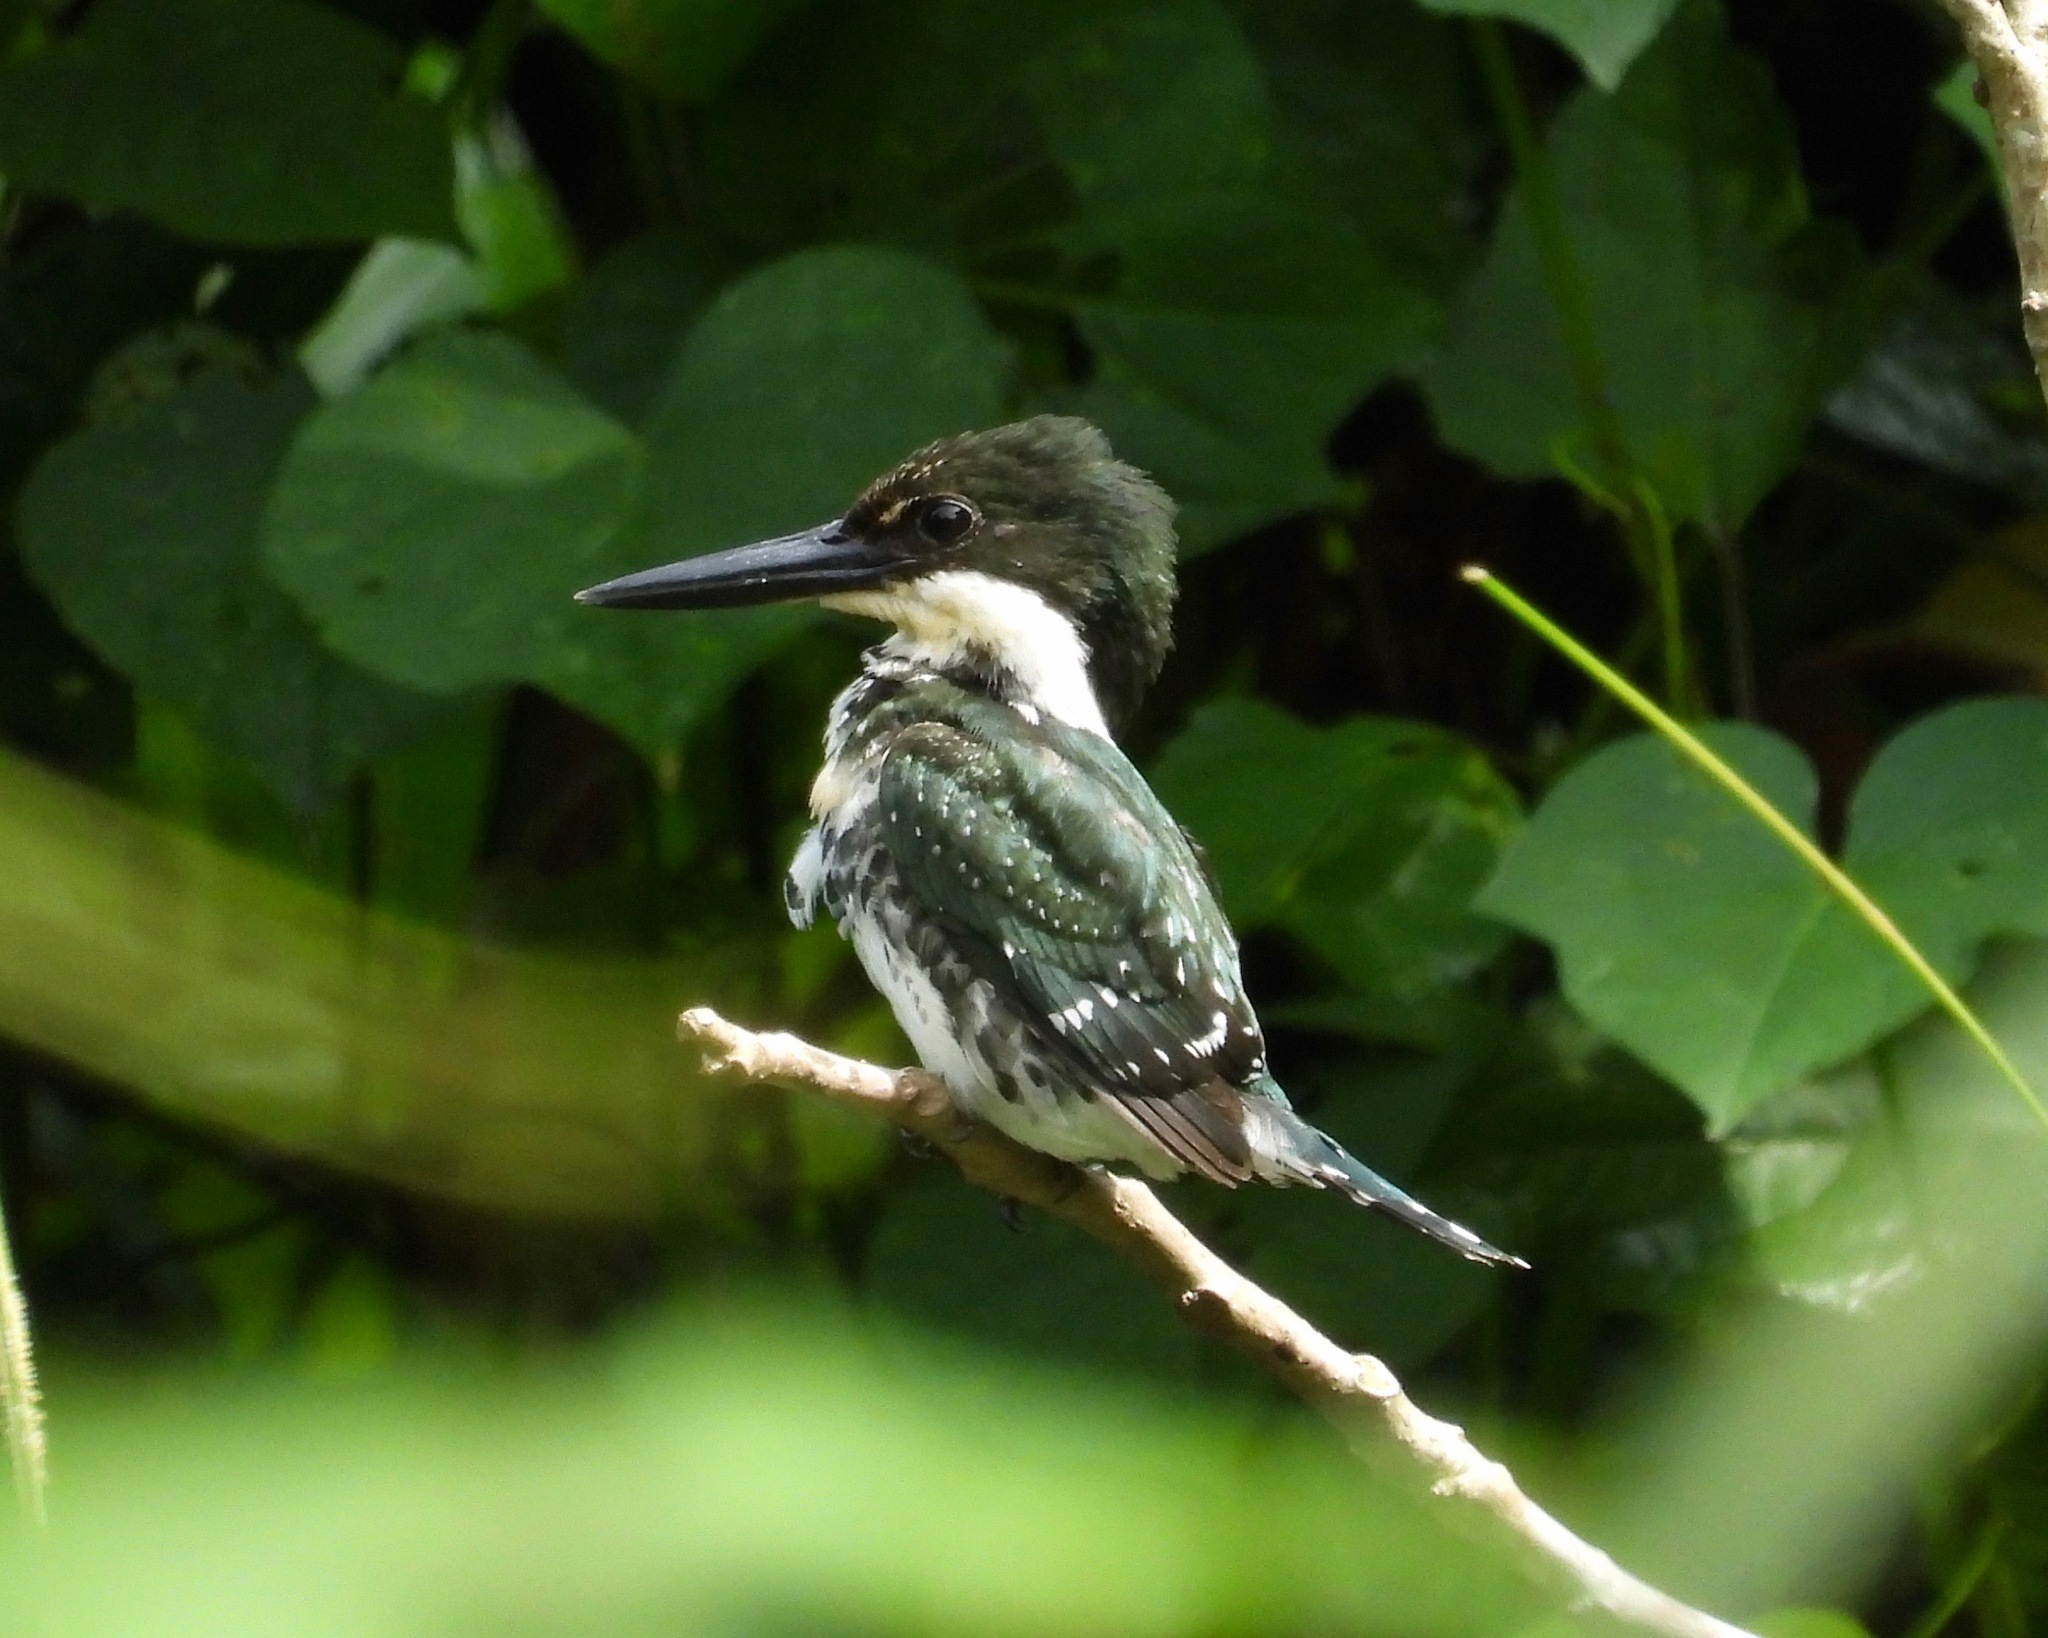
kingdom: Animalia
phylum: Chordata
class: Aves
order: Coraciiformes
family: Alcedinidae
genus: Chloroceryle
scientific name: Chloroceryle americana
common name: Green kingfisher
